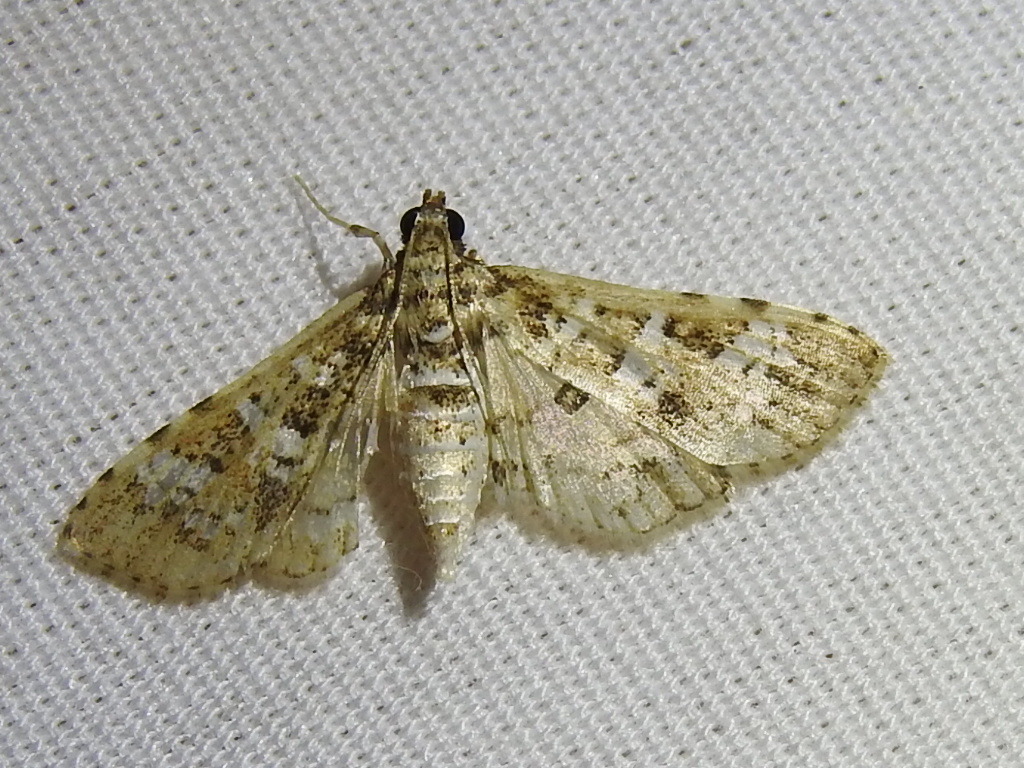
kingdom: Animalia
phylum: Arthropoda
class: Insecta
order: Lepidoptera
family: Crambidae
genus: Samea
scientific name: Samea multiplicalis
